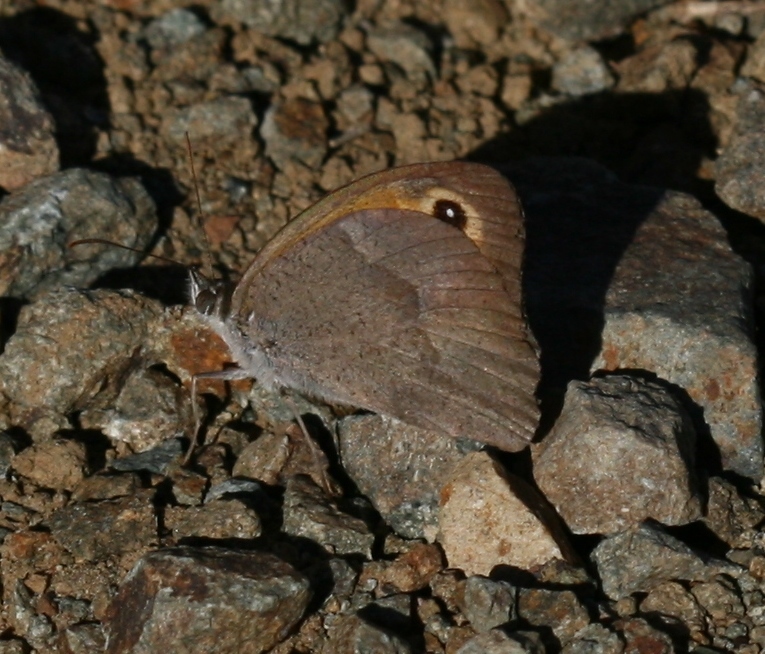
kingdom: Animalia
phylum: Arthropoda
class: Insecta
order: Lepidoptera
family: Nymphalidae
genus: Maniola
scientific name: Maniola telmessia
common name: Persian meadow brown
